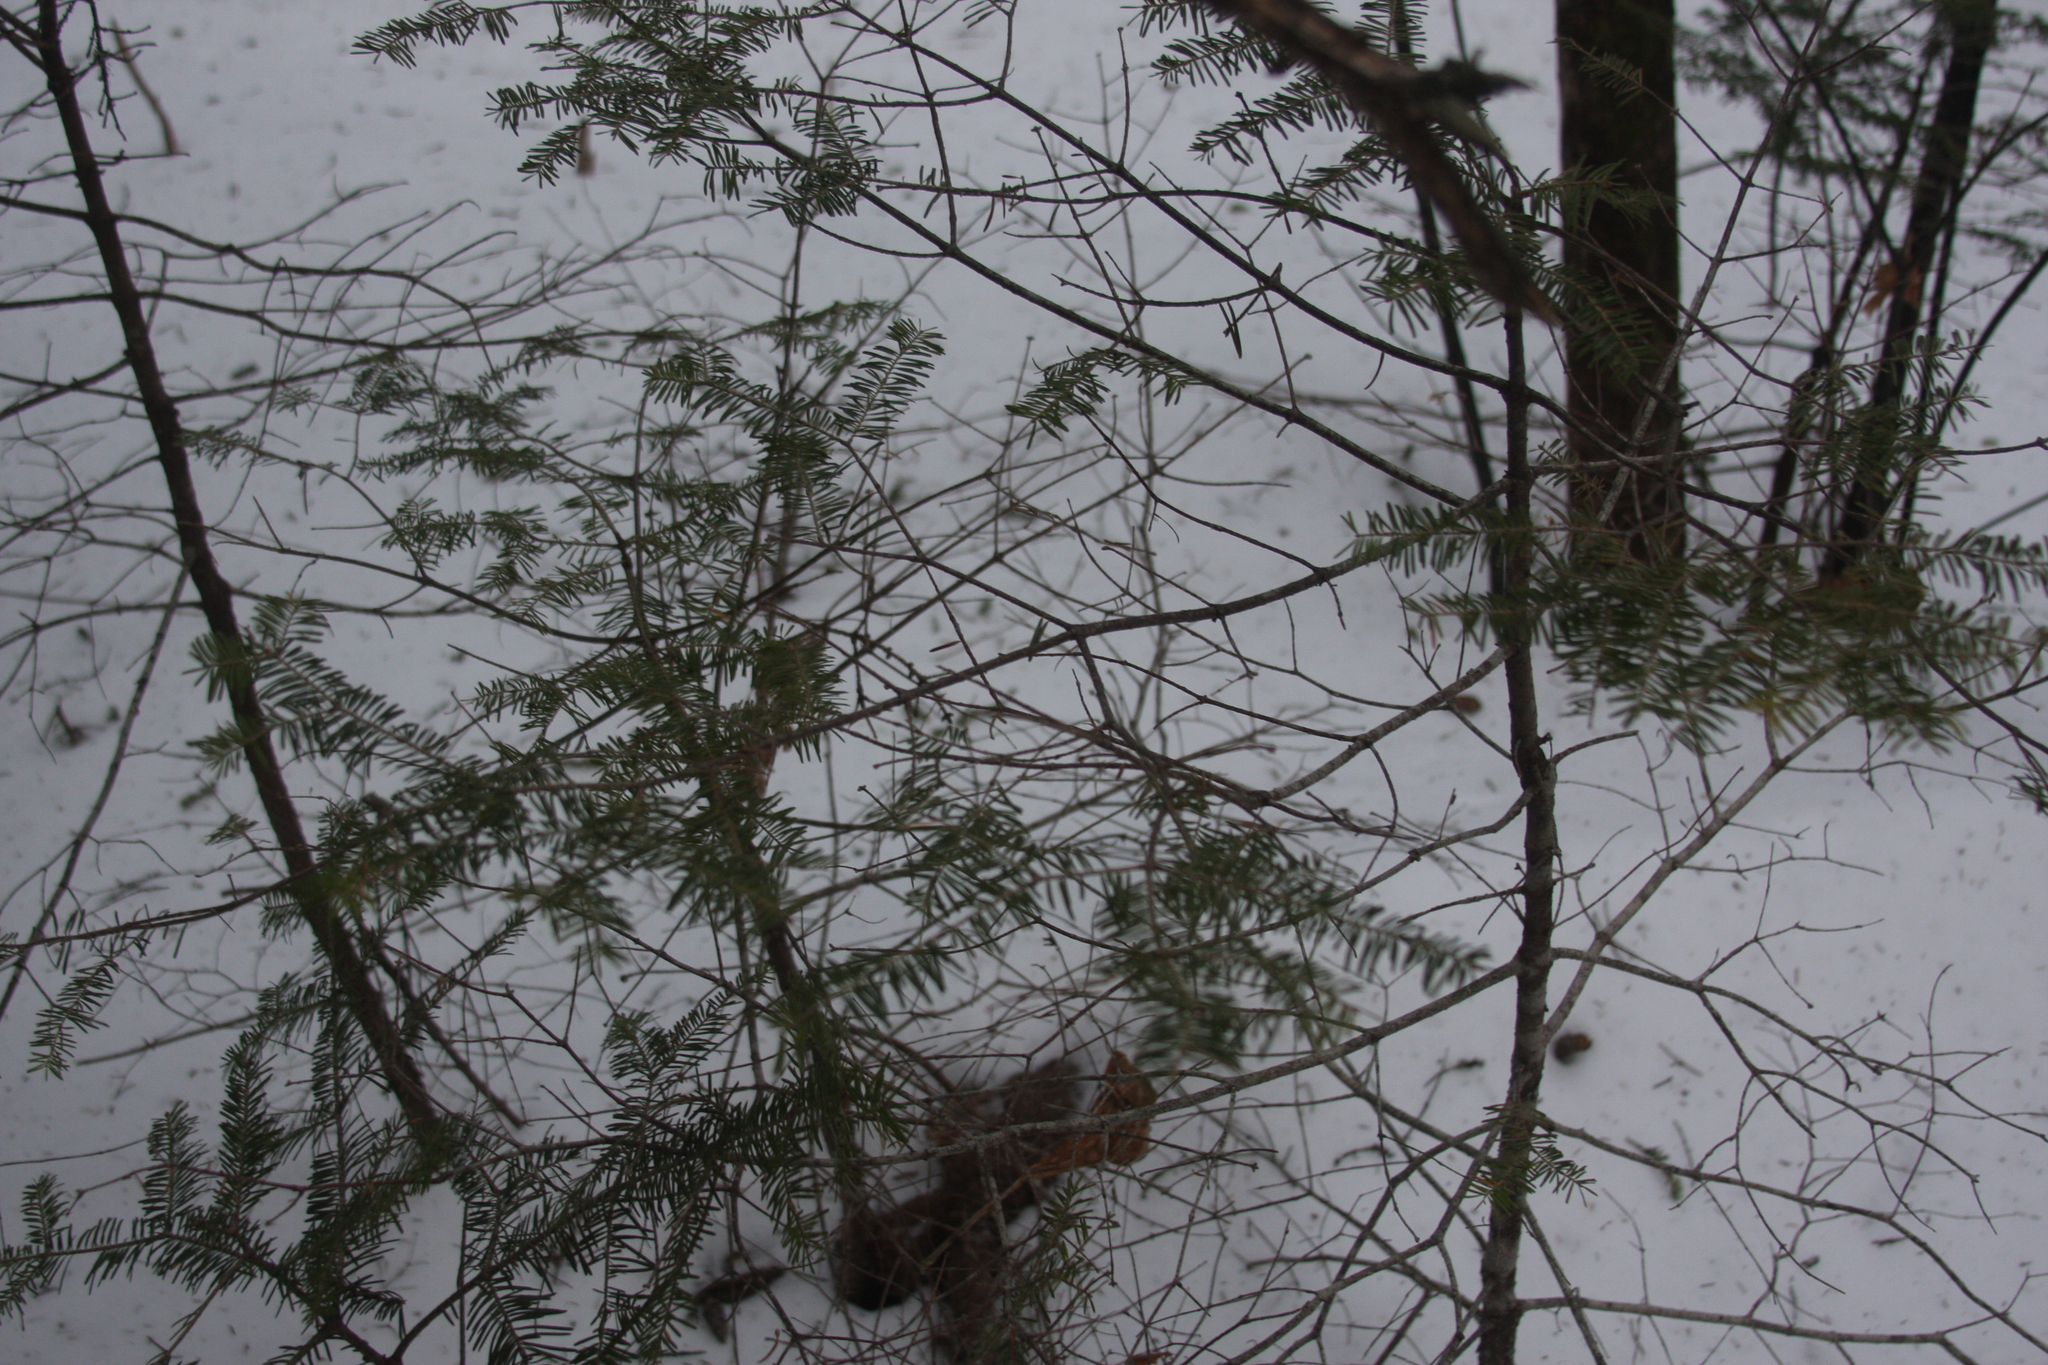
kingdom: Plantae
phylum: Tracheophyta
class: Pinopsida
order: Pinales
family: Pinaceae
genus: Abies
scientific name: Abies balsamea
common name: Balsam fir
